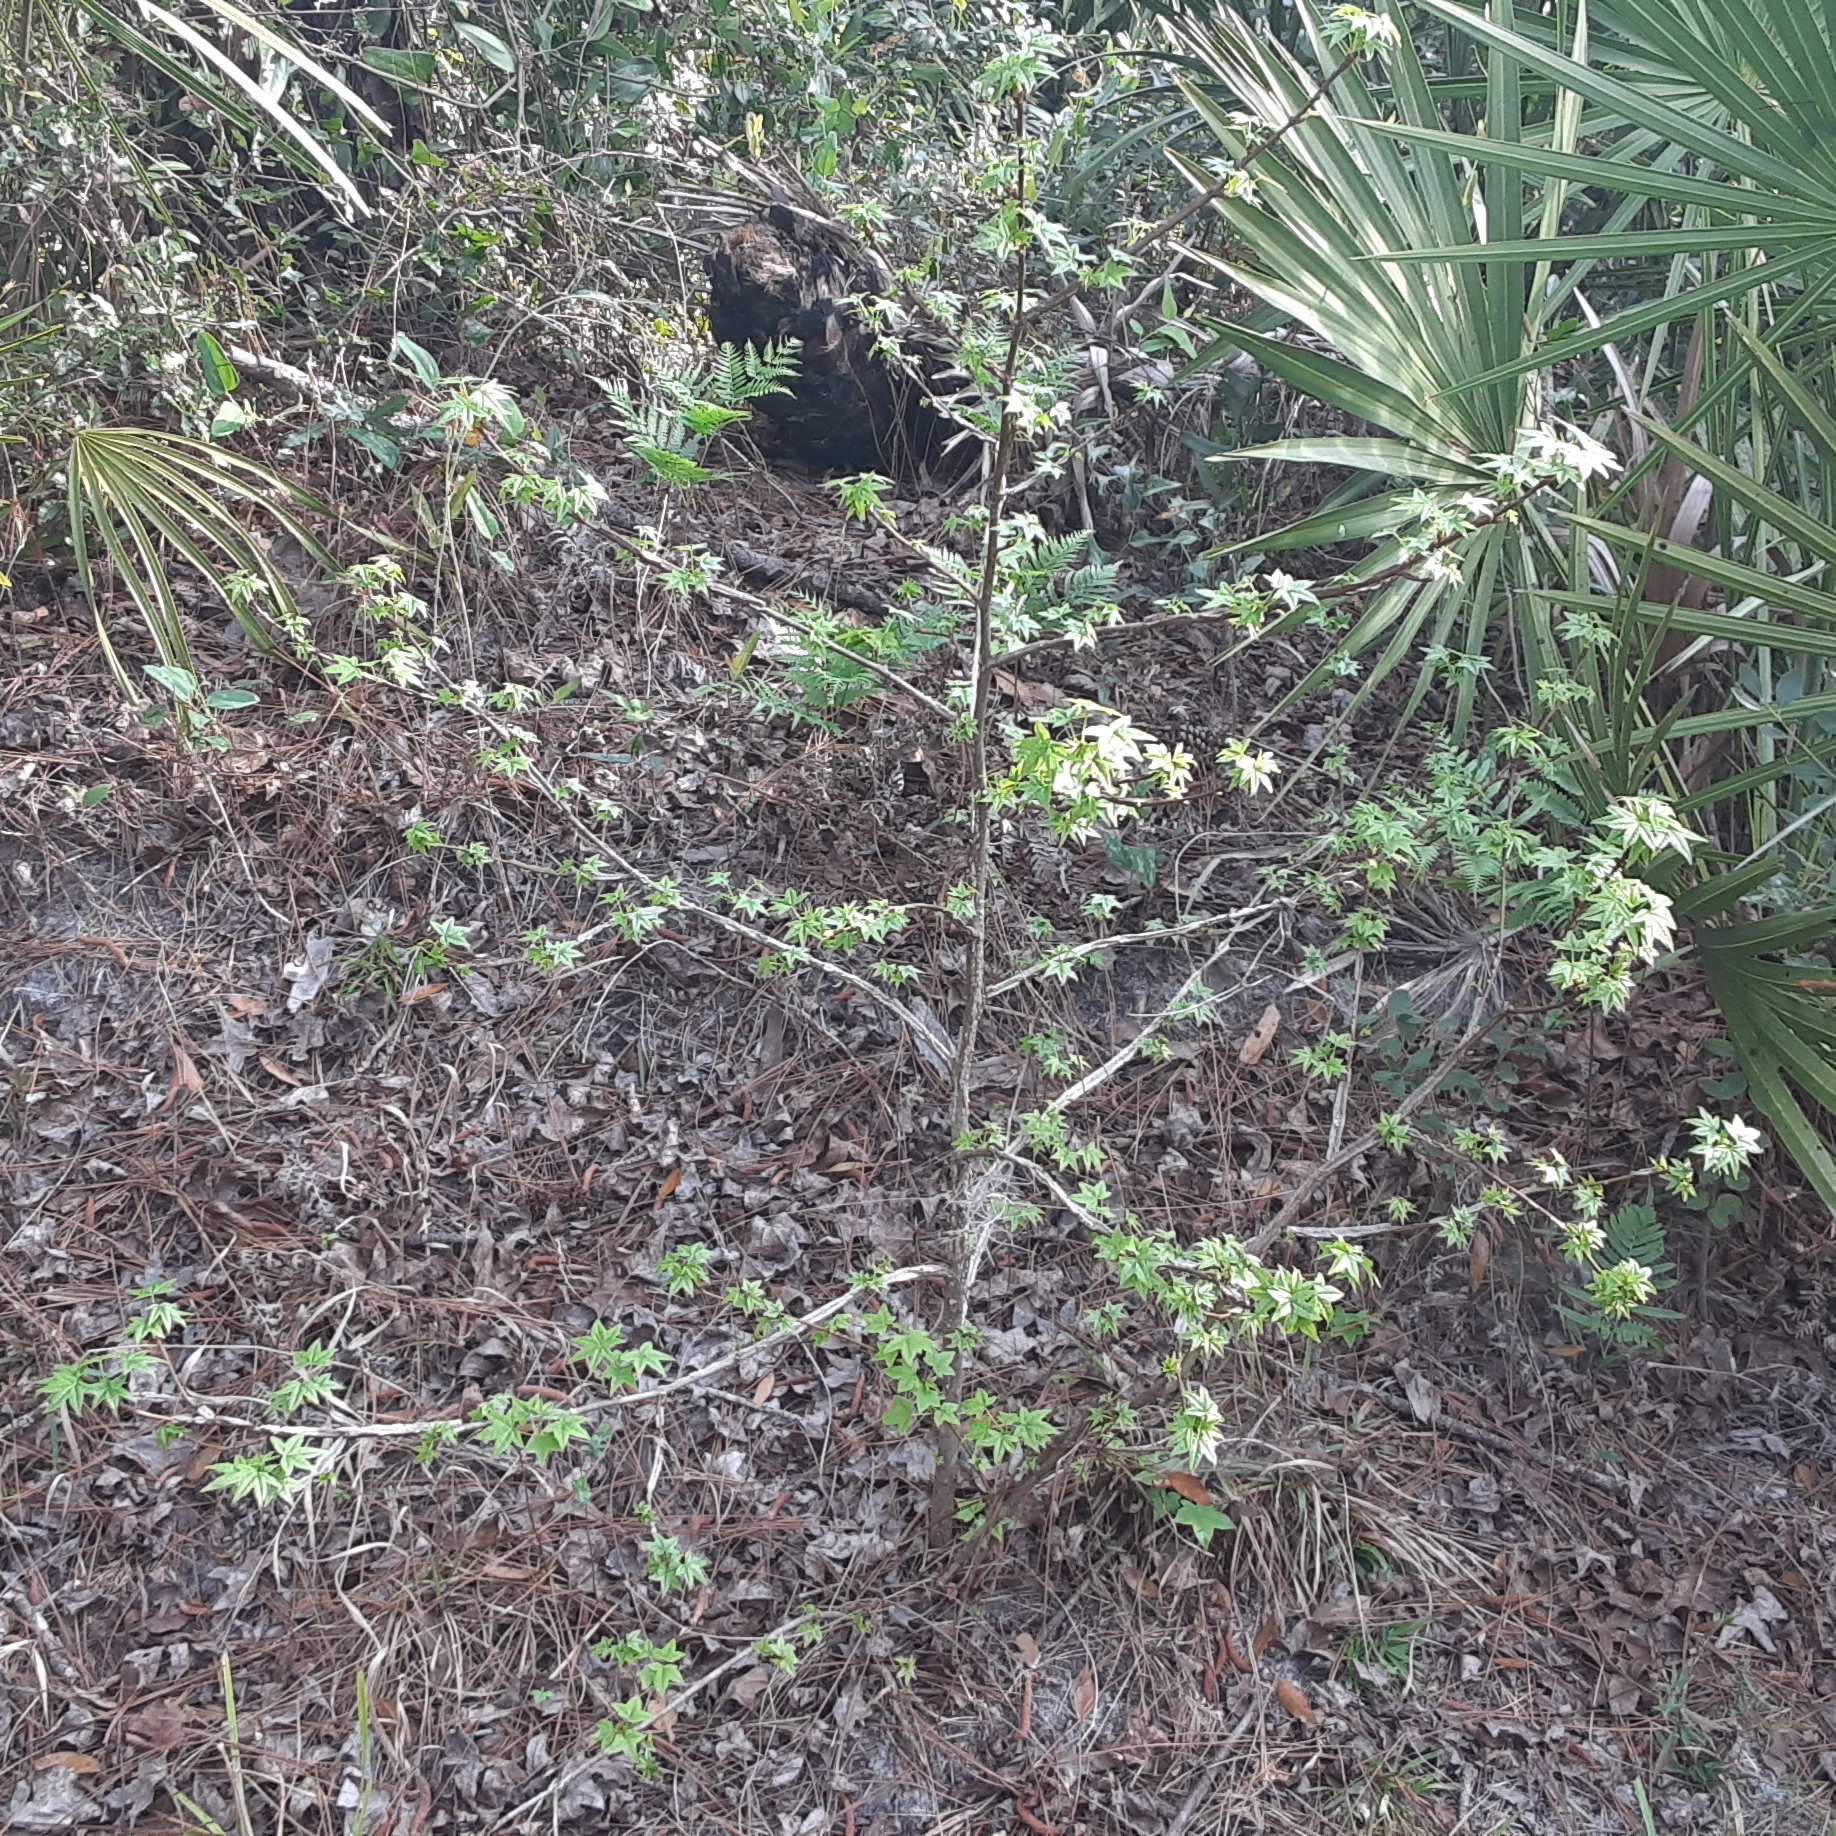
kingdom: Plantae
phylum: Tracheophyta
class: Magnoliopsida
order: Saxifragales
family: Altingiaceae
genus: Liquidambar
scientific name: Liquidambar styraciflua
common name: Sweet gum
